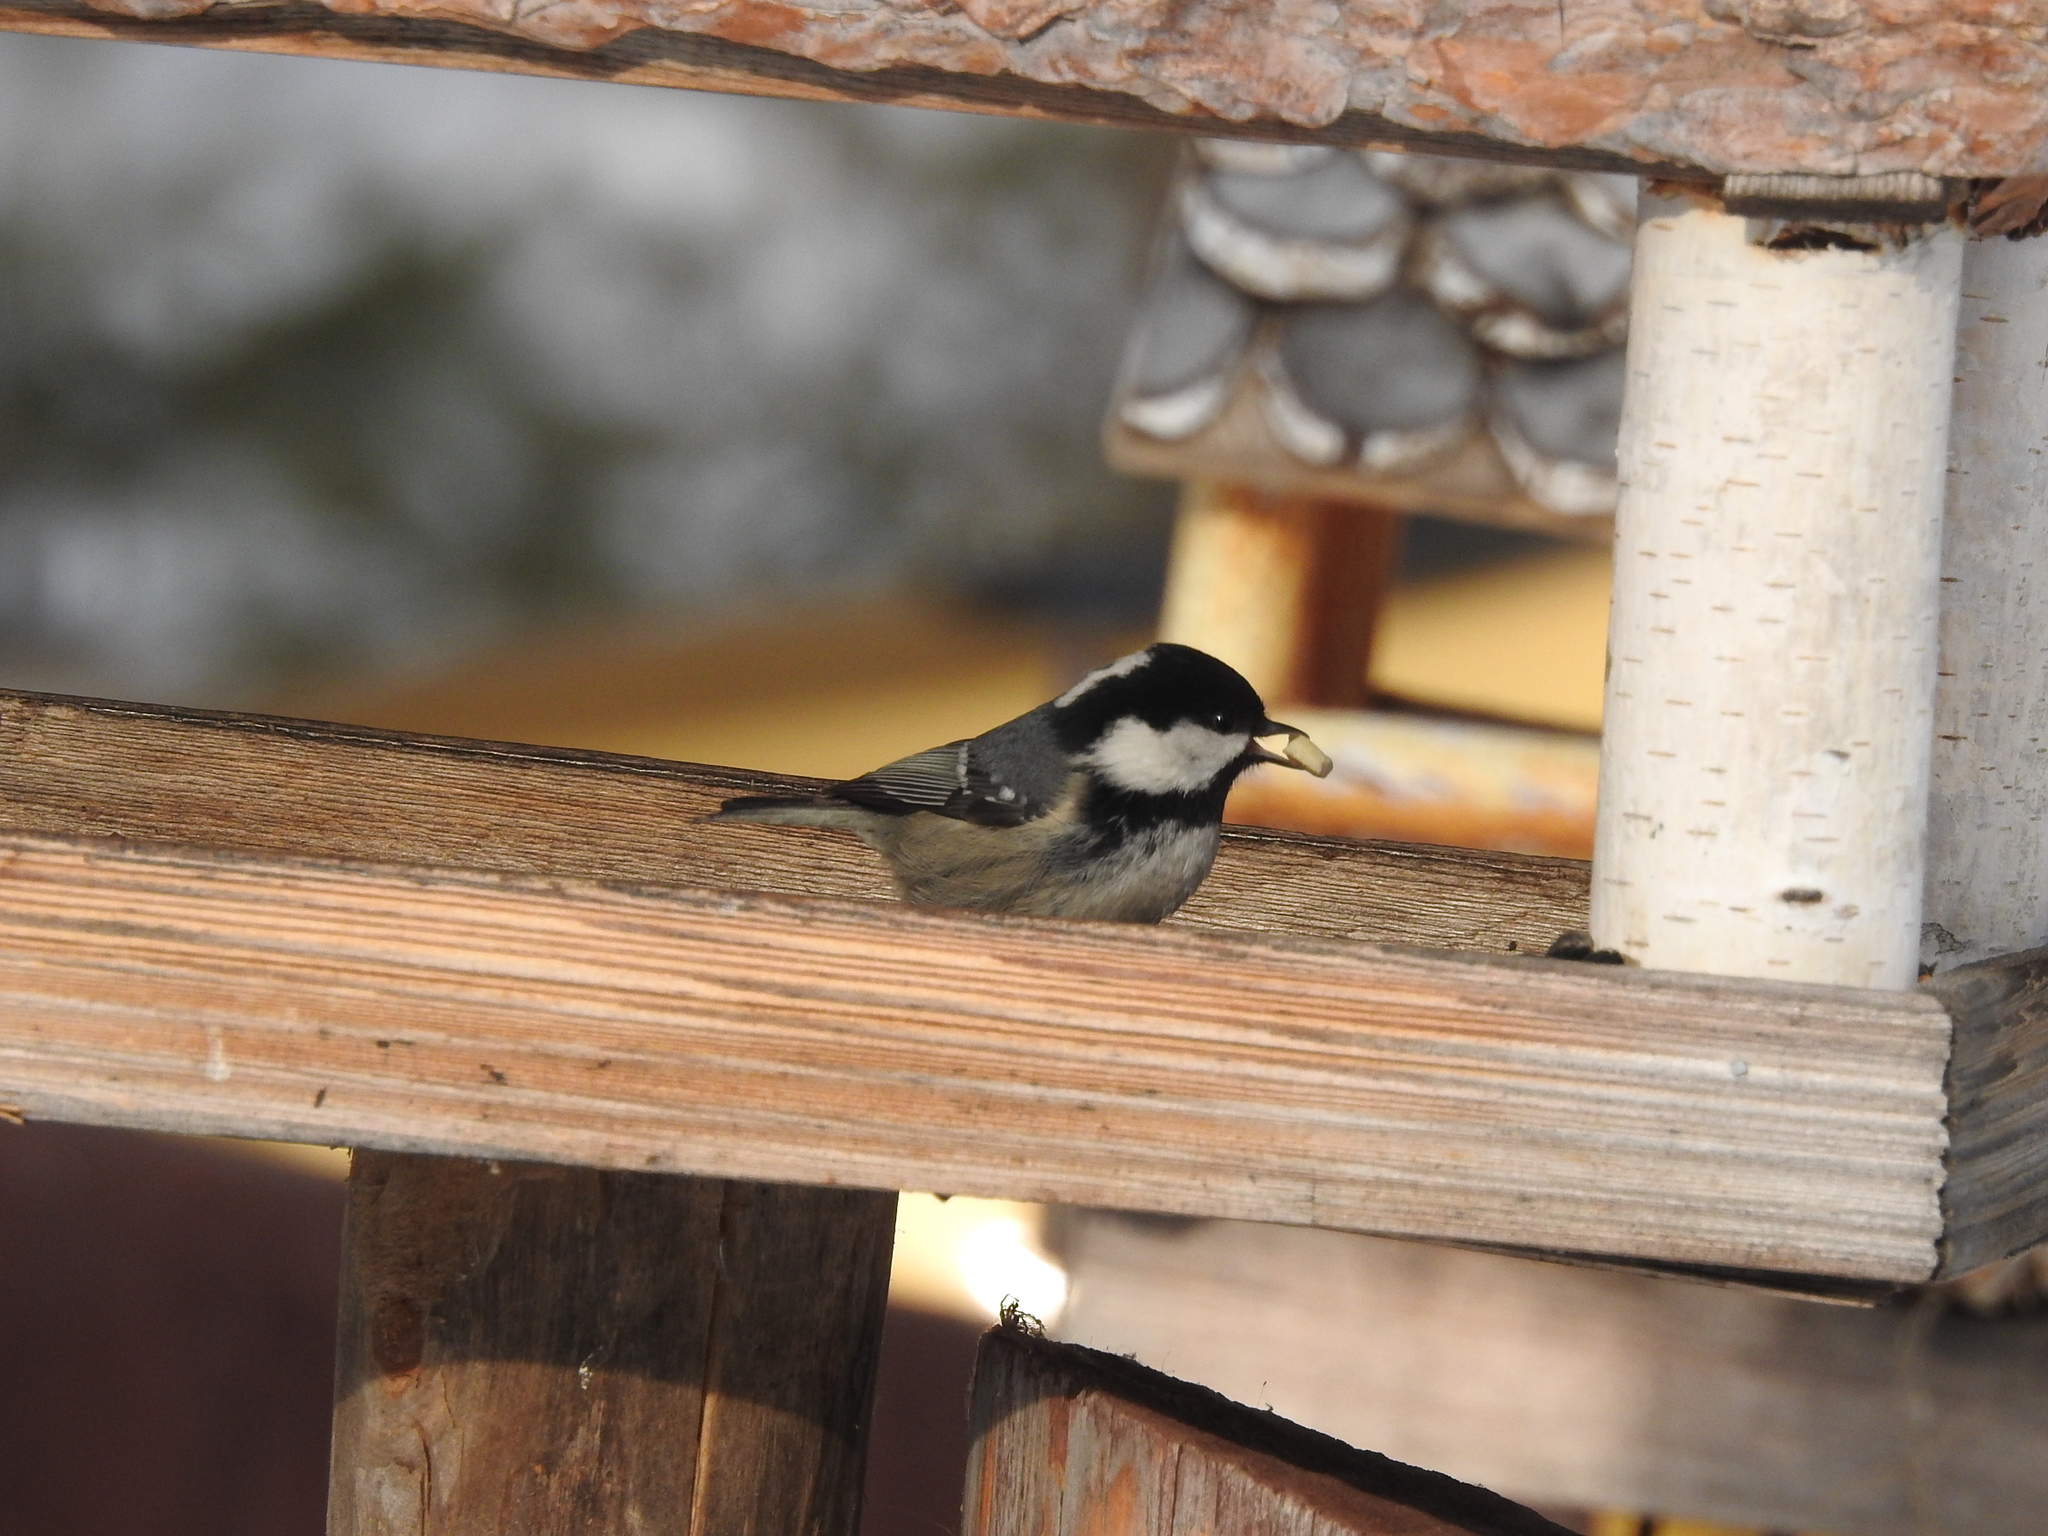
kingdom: Animalia
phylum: Chordata
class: Aves
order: Passeriformes
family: Paridae
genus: Periparus
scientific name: Periparus ater
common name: Coal tit
